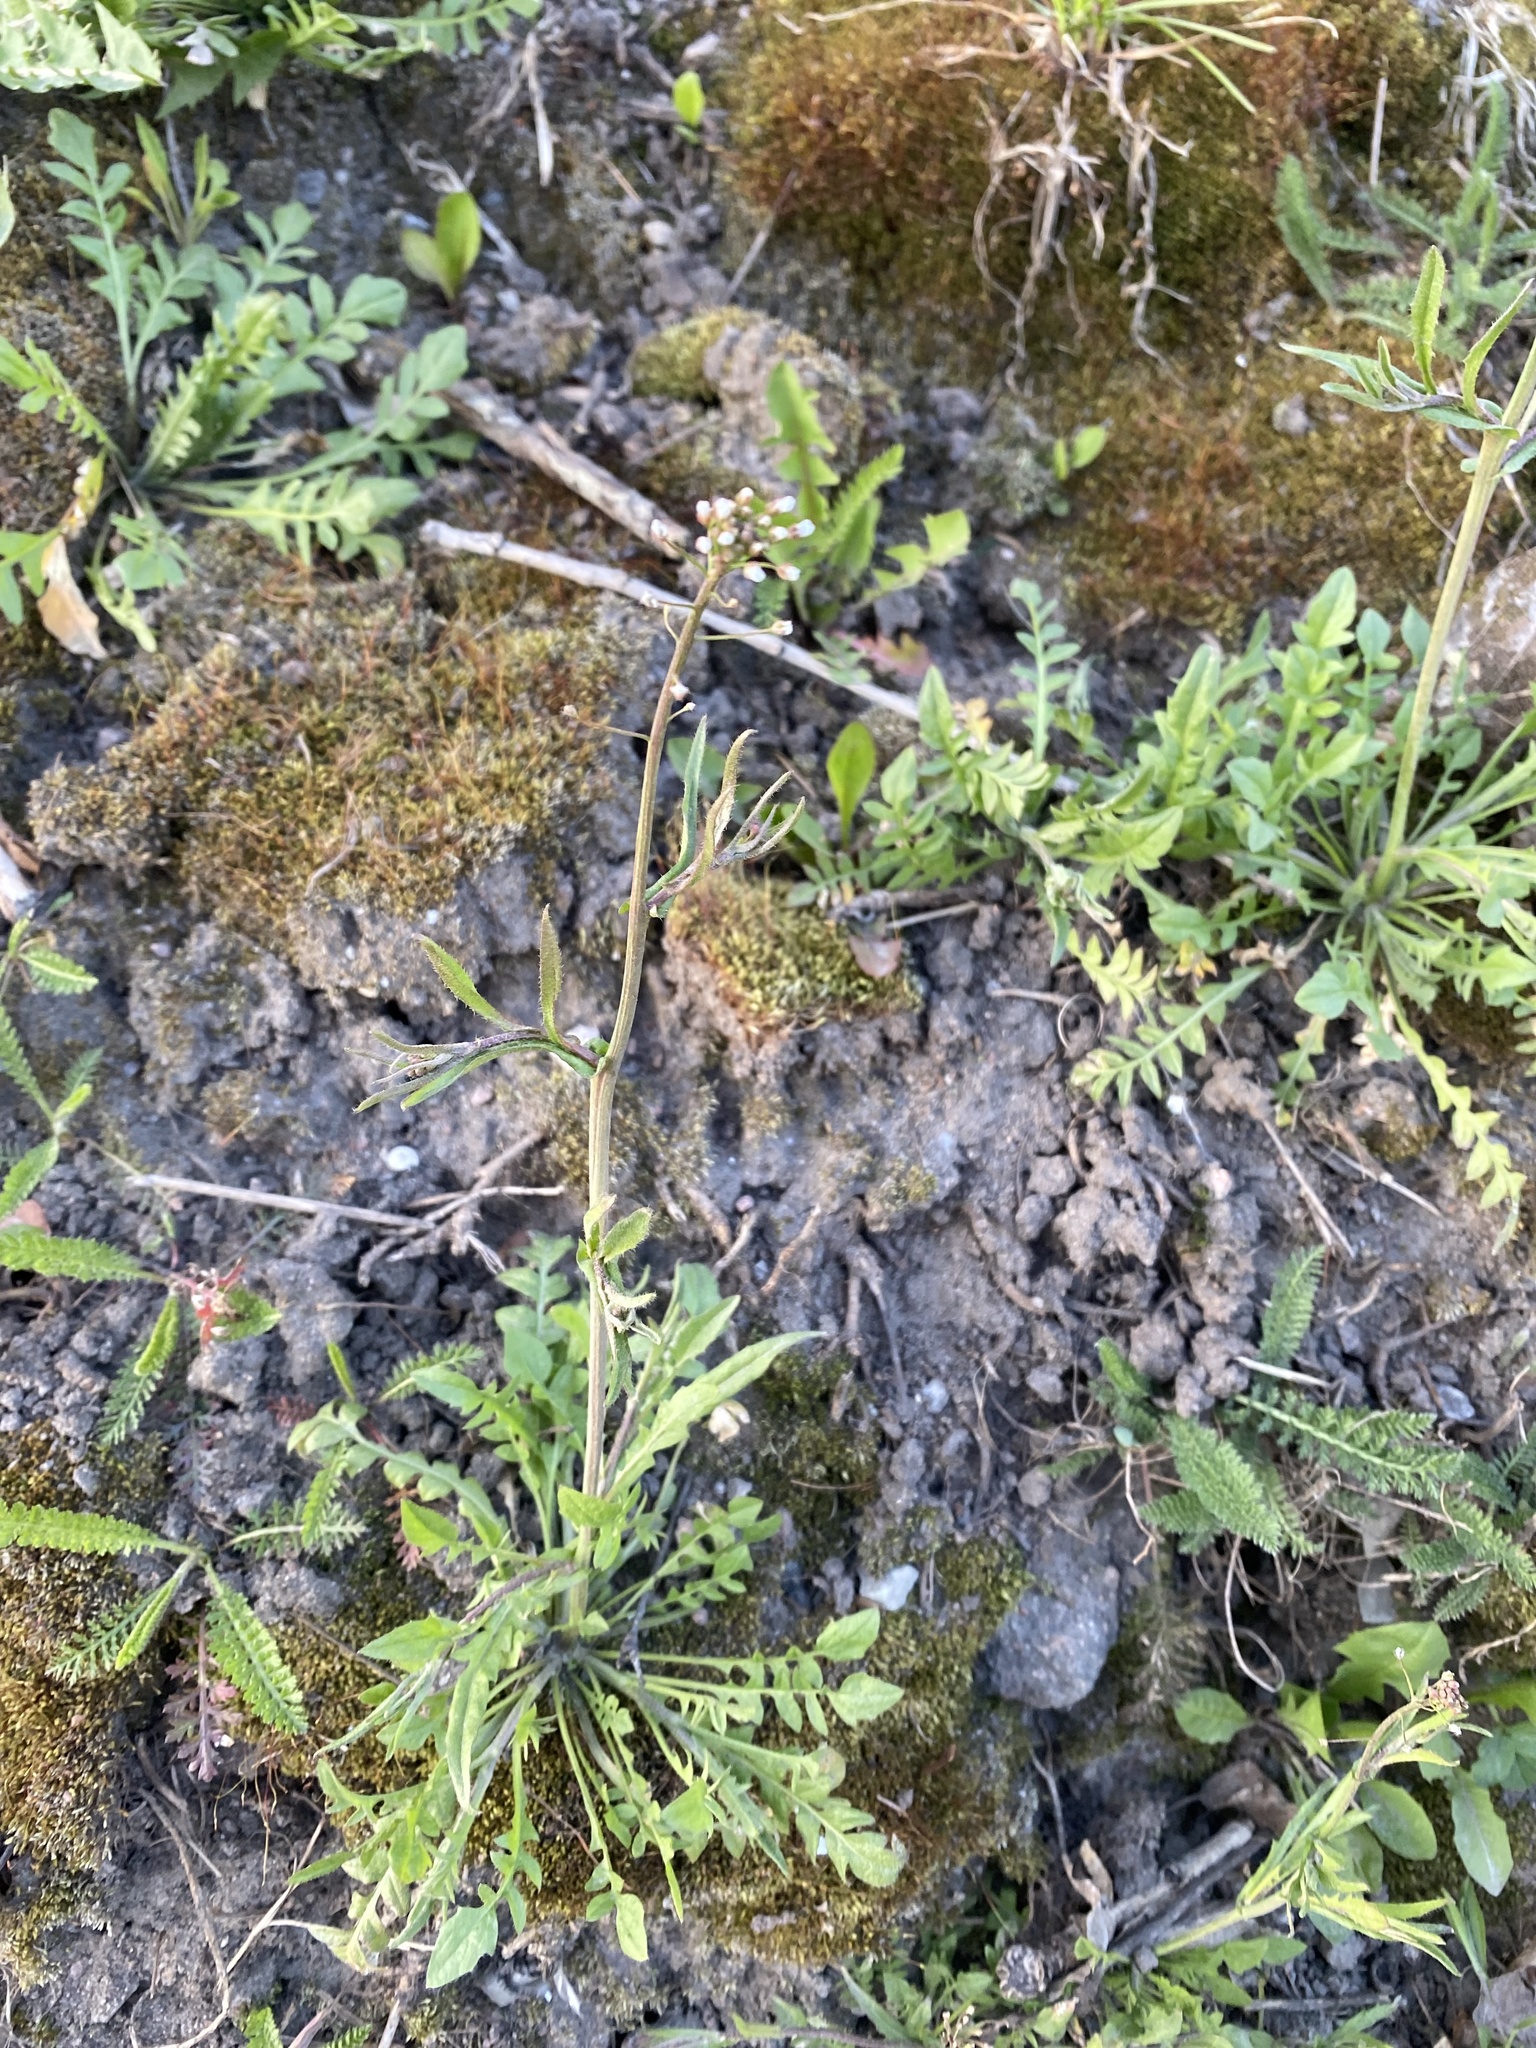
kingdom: Plantae
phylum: Tracheophyta
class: Magnoliopsida
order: Brassicales
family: Brassicaceae
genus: Capsella
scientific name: Capsella bursa-pastoris
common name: Shepherd's purse
